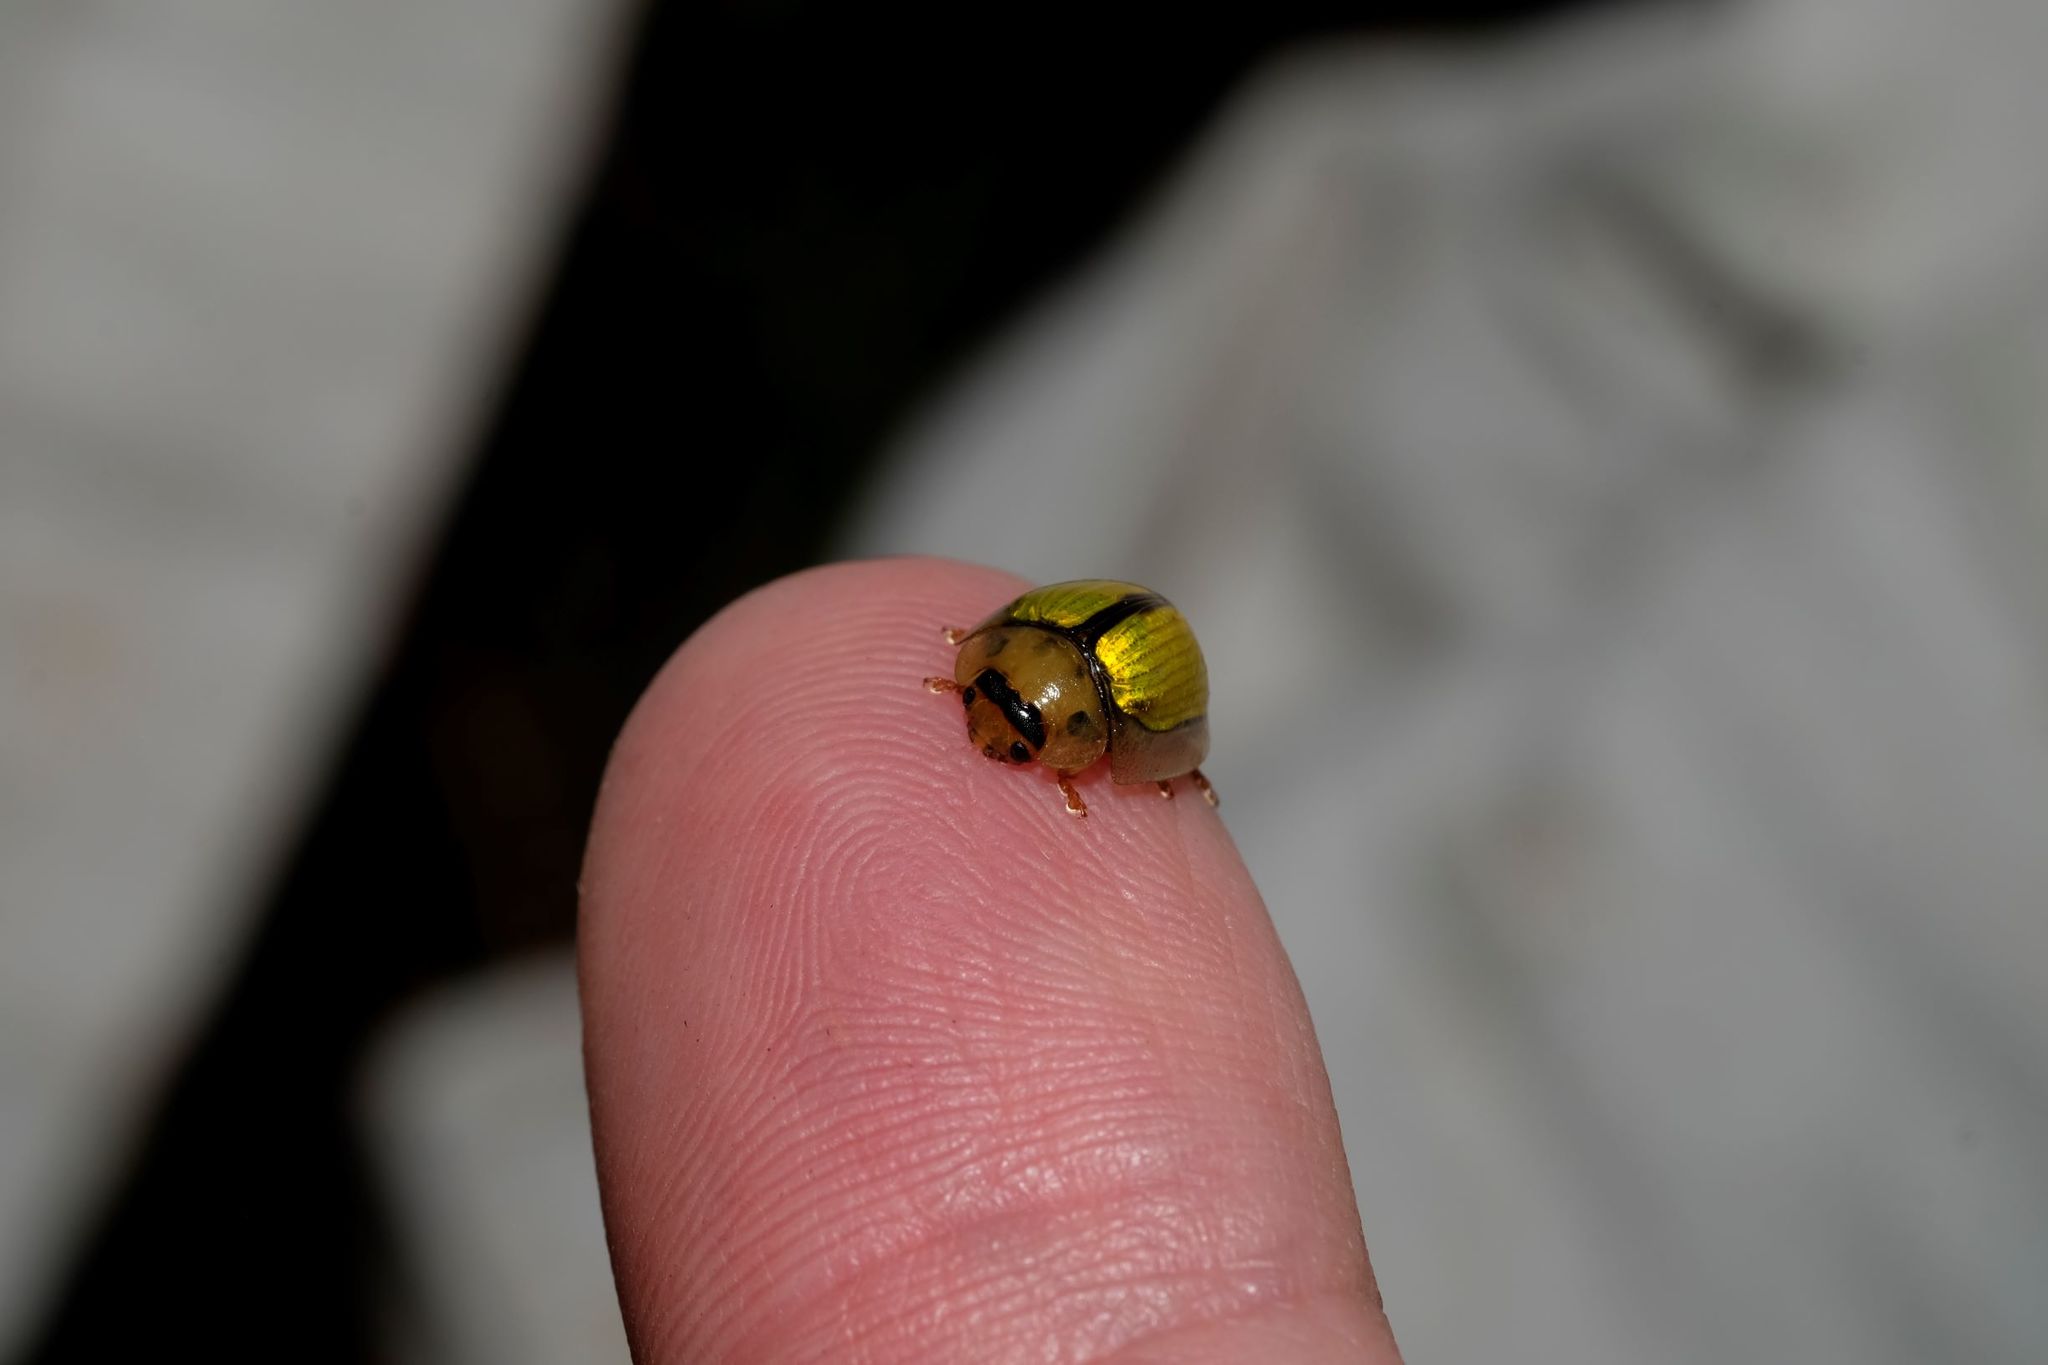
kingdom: Animalia
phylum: Arthropoda
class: Insecta
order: Coleoptera
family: Chrysomelidae
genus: Paropsisterna
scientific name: Paropsisterna
